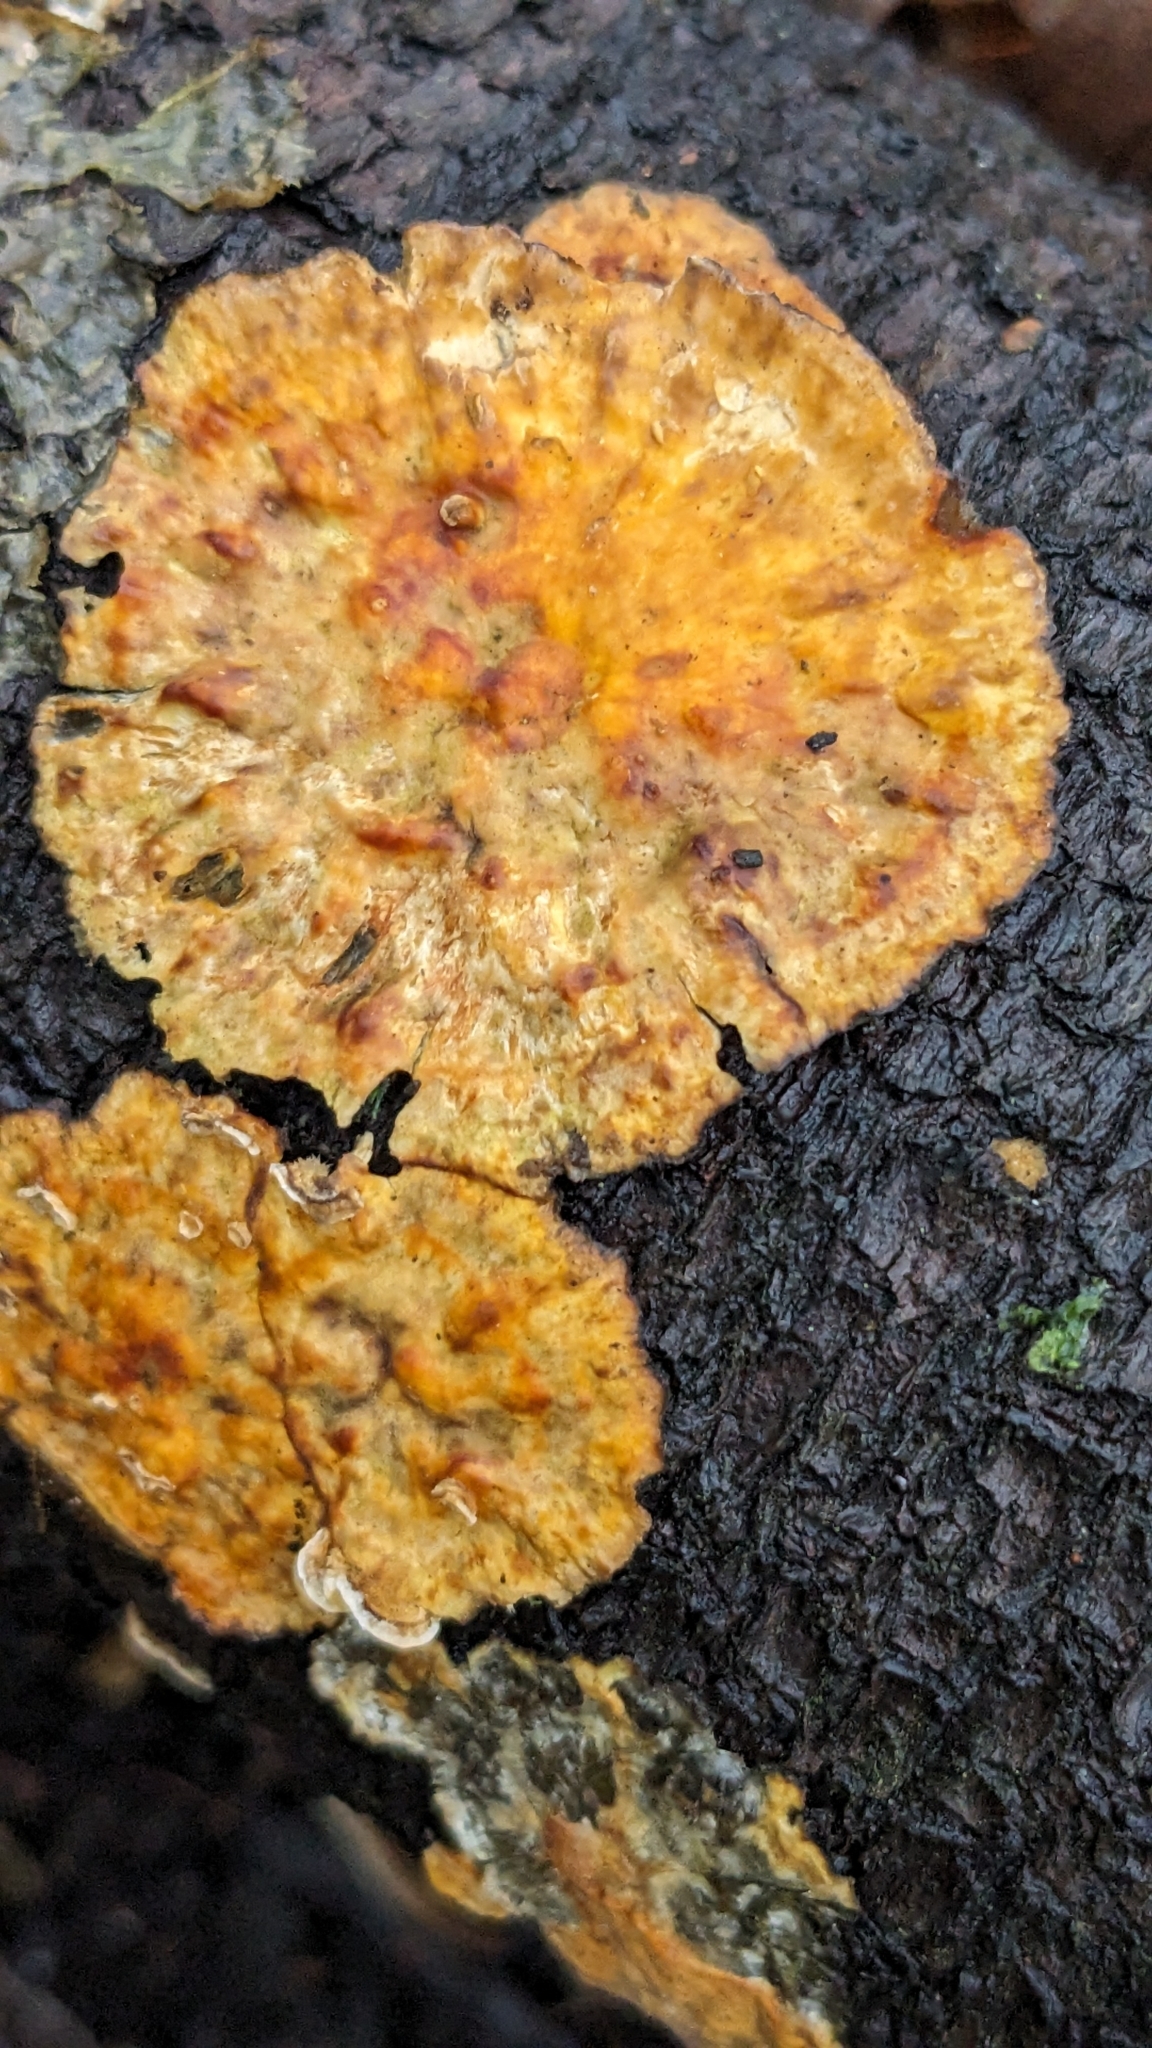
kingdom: Fungi
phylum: Basidiomycota
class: Agaricomycetes
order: Russulales
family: Stereaceae
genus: Stereum
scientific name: Stereum rugosum
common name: Bleeding broadleaf crust
